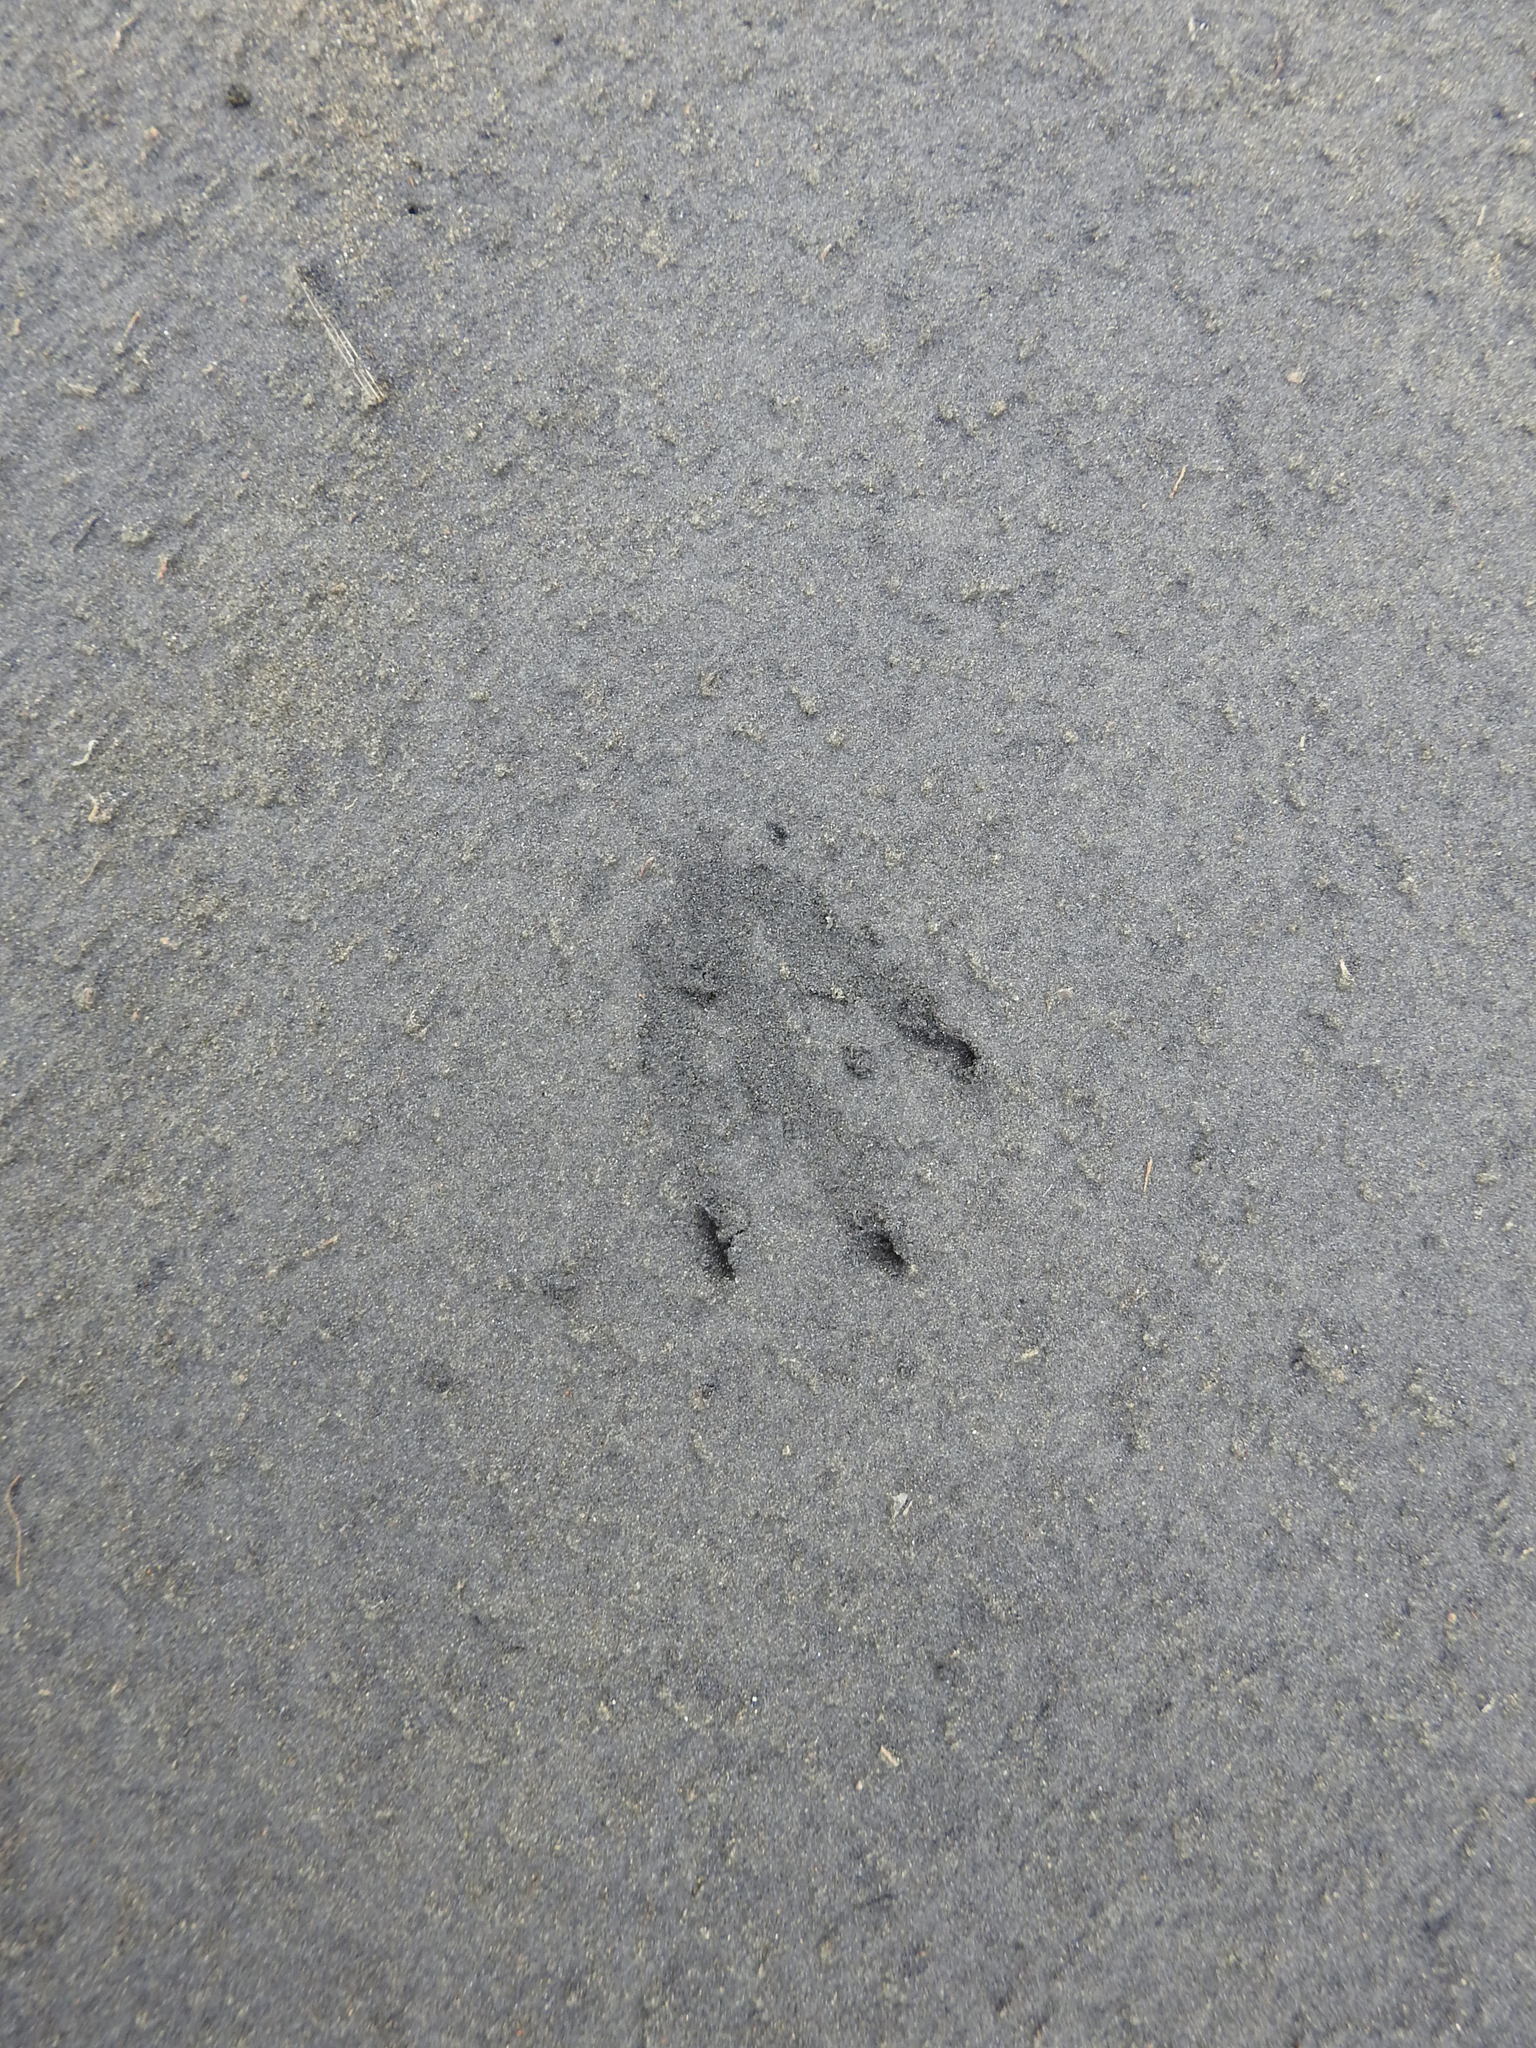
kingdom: Animalia
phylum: Chordata
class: Aves
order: Sphenisciformes
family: Spheniscidae
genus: Eudyptula
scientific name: Eudyptula minor
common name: Little penguin
